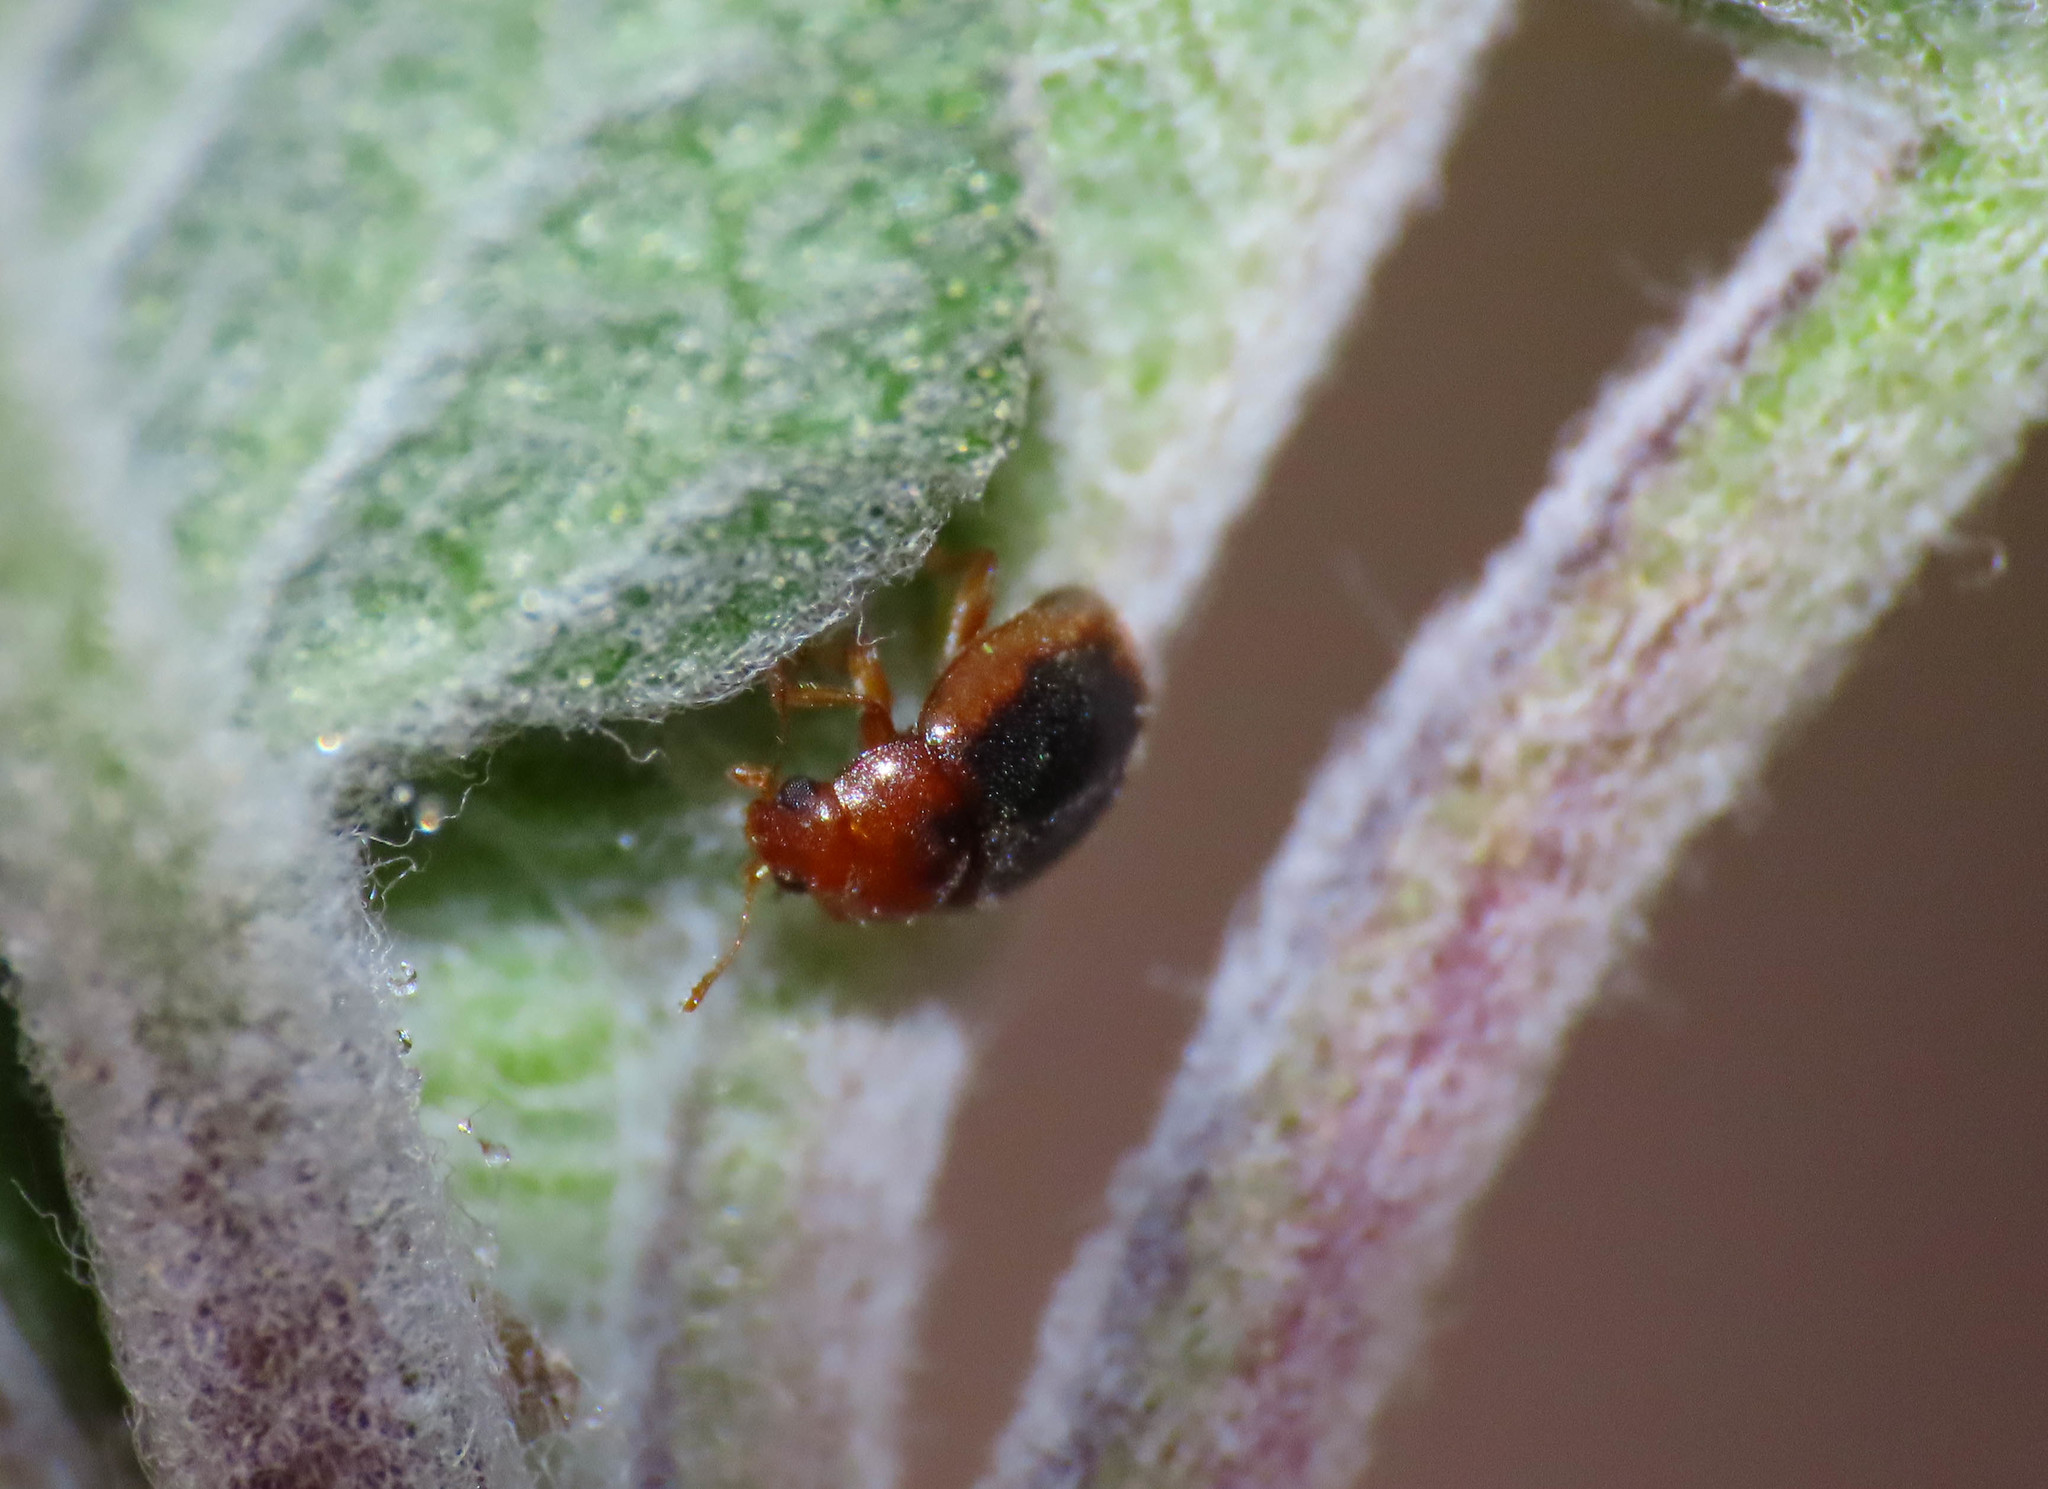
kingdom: Animalia
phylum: Arthropoda
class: Insecta
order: Coleoptera
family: Coccinellidae
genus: Rhyzobius
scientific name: Rhyzobius litura
